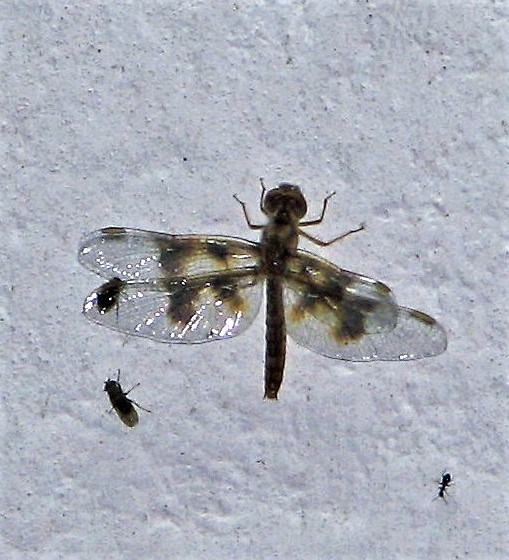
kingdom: Animalia
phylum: Arthropoda
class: Insecta
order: Odonata
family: Libellulidae
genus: Perithemis
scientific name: Perithemis tenera
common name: Eastern amberwing
